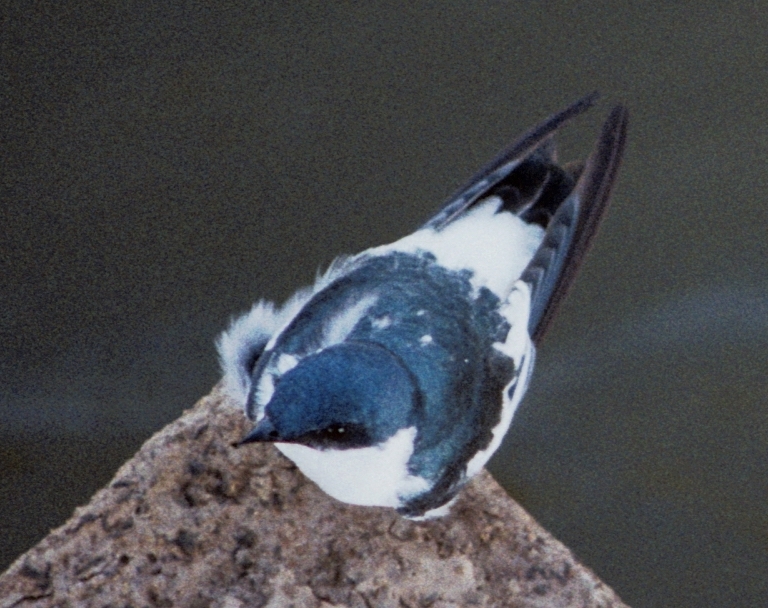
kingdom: Animalia
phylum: Chordata
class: Aves
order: Passeriformes
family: Hirundinidae
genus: Tachycineta
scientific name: Tachycineta albiventer
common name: White-winged swallow
